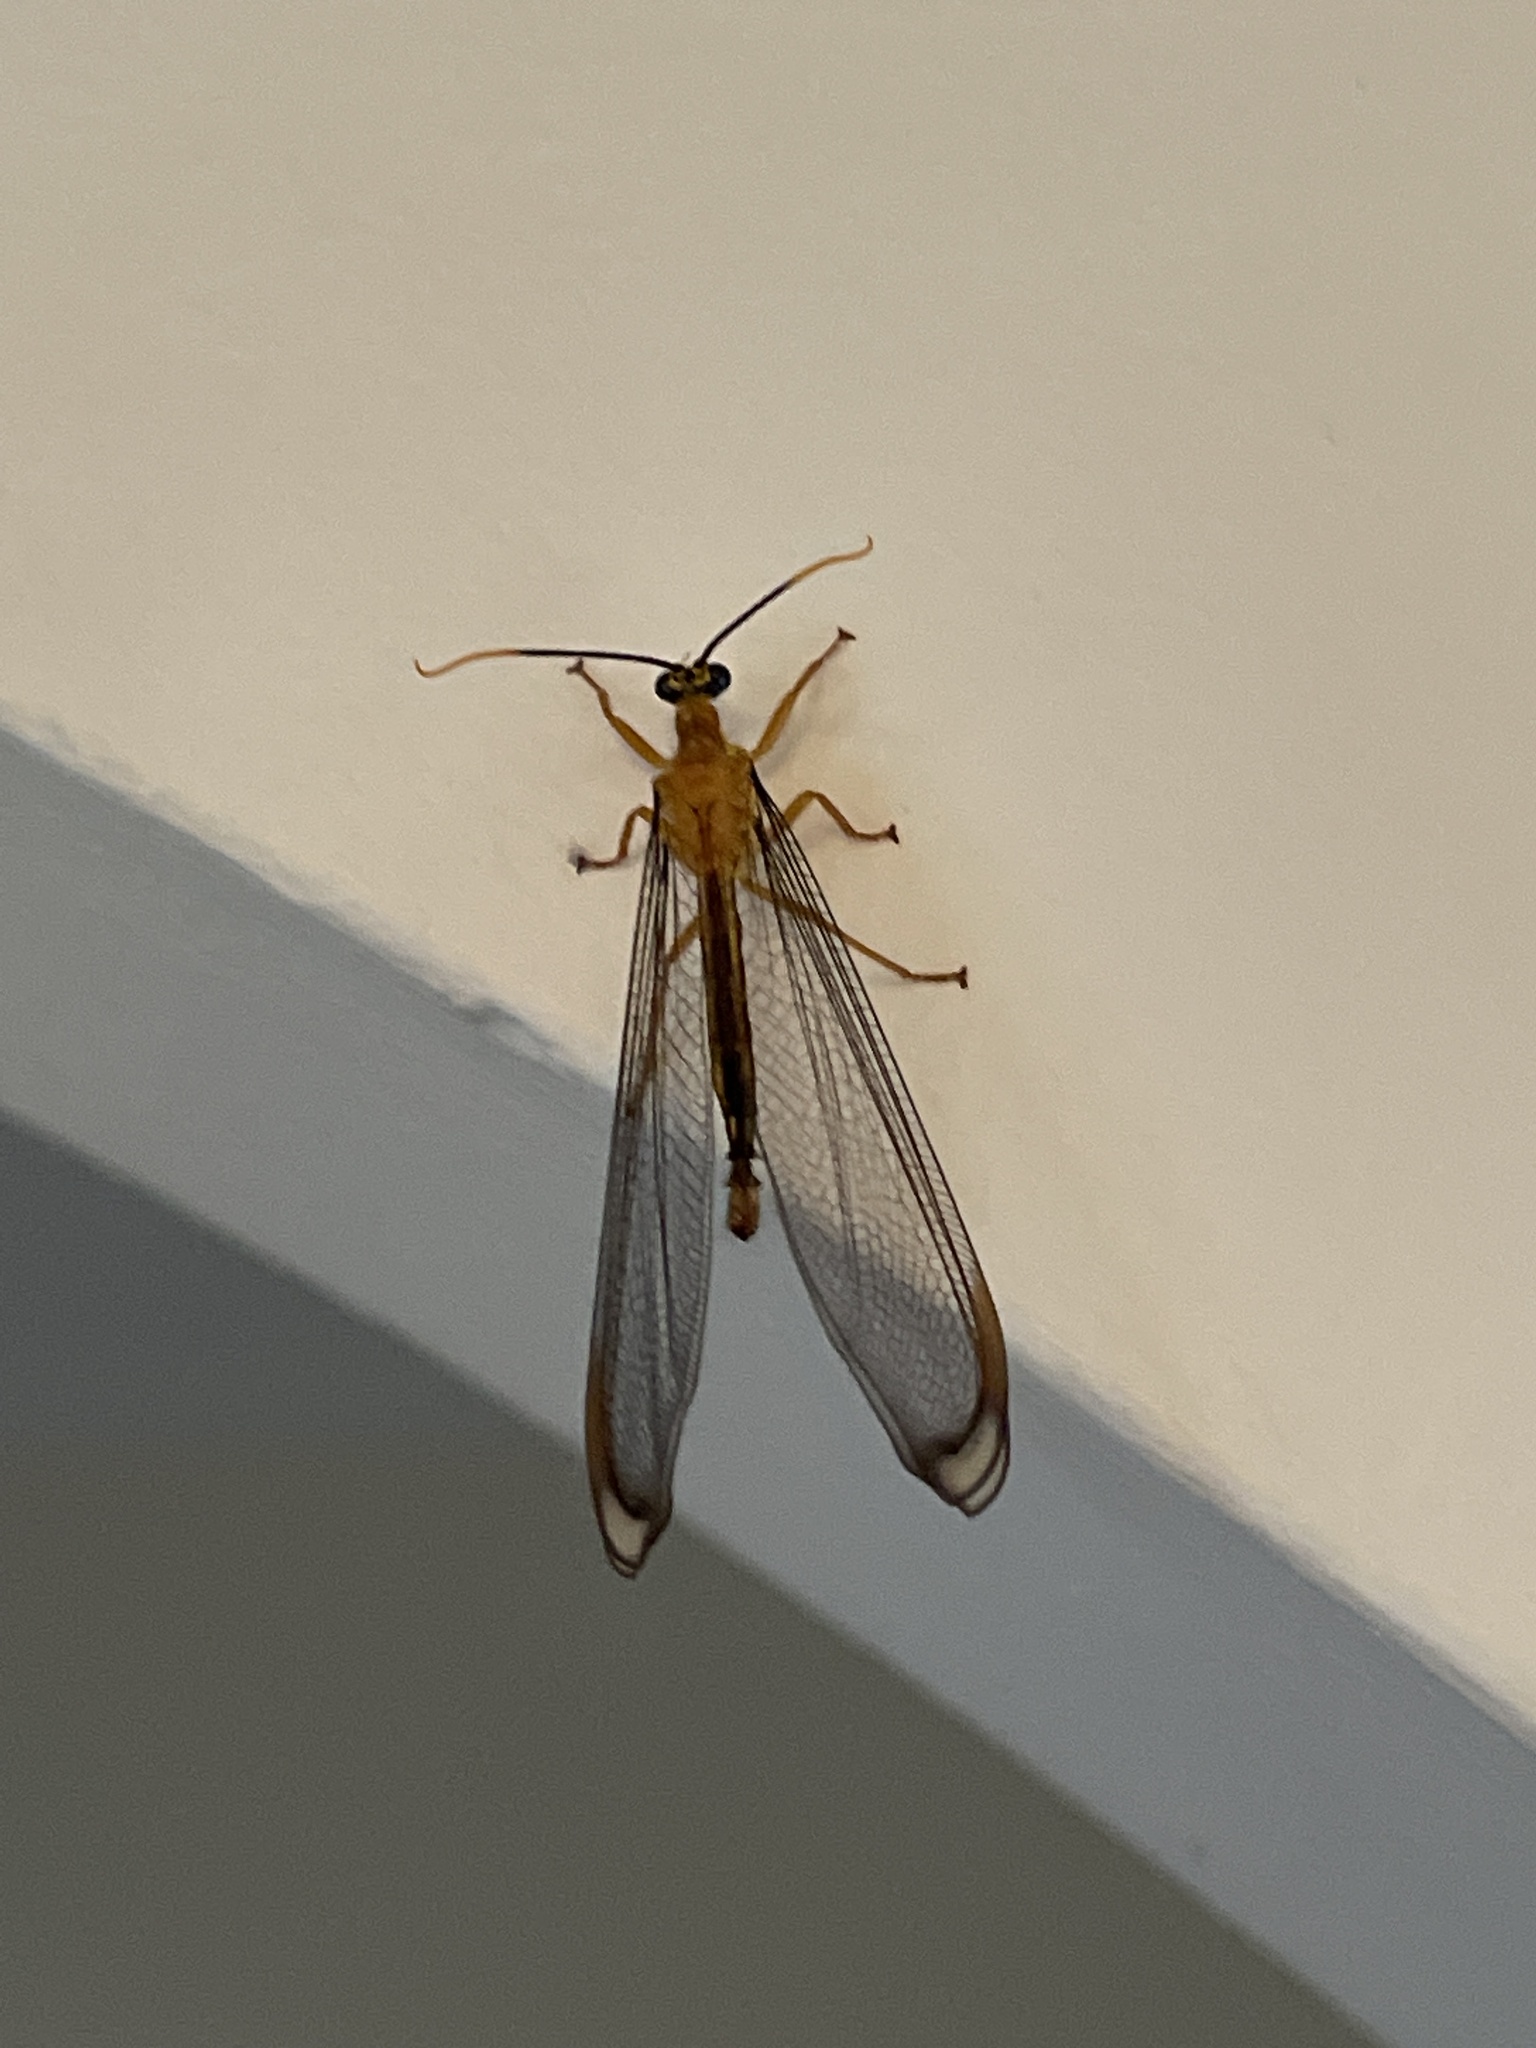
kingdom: Animalia
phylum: Arthropoda
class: Insecta
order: Neuroptera
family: Nymphidae
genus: Nymphes
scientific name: Nymphes myrmeleonoides
